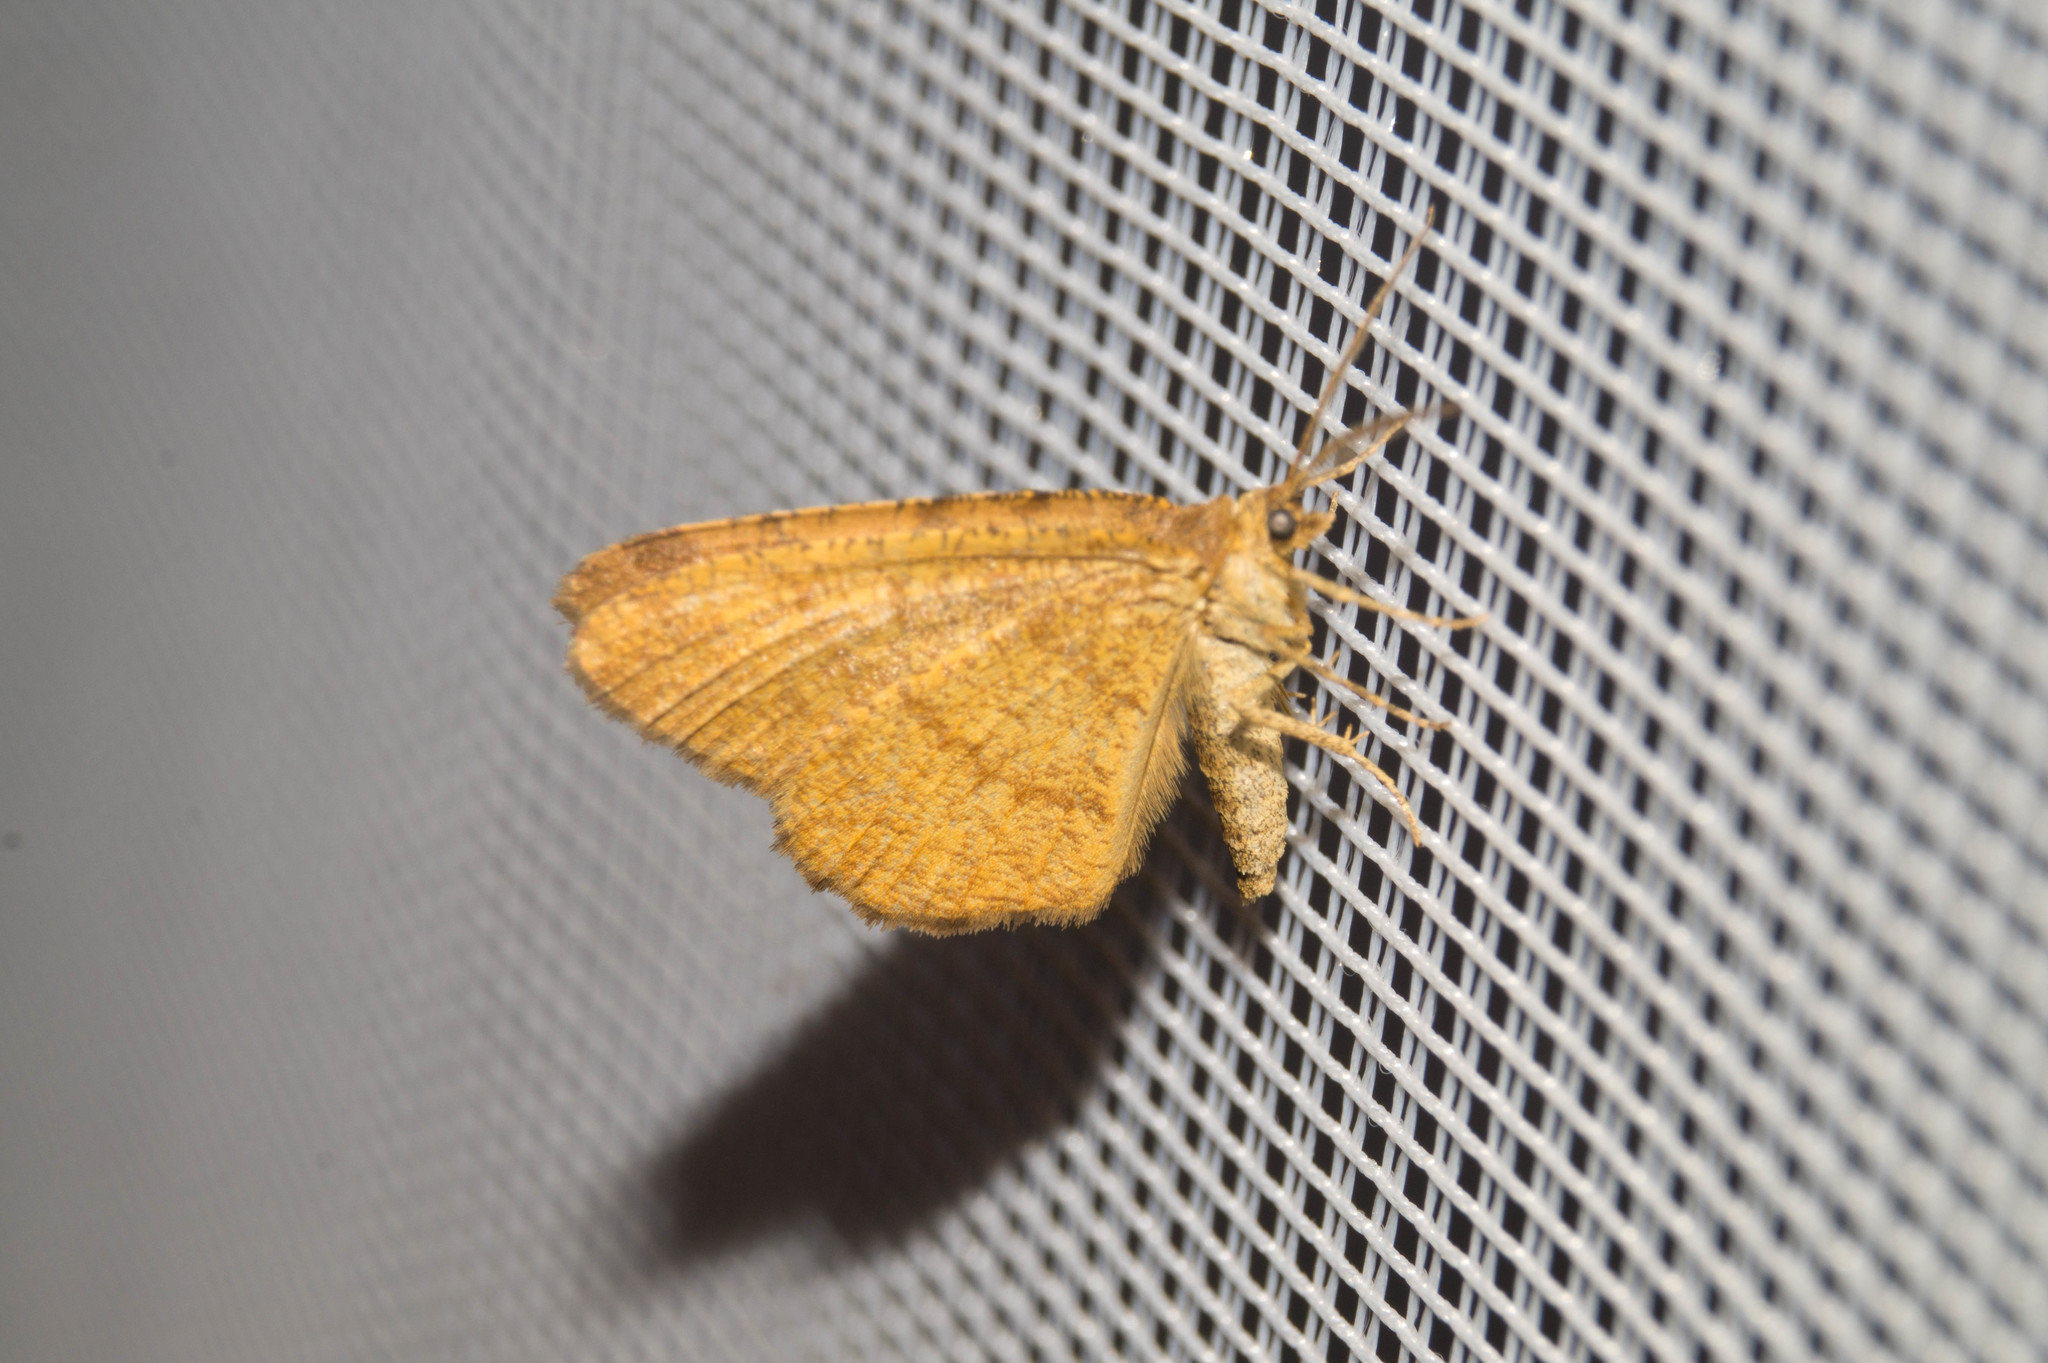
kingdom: Animalia
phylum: Arthropoda
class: Insecta
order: Lepidoptera
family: Geometridae
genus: Macaria
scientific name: Macaria brunneata
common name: Rannoch looper
